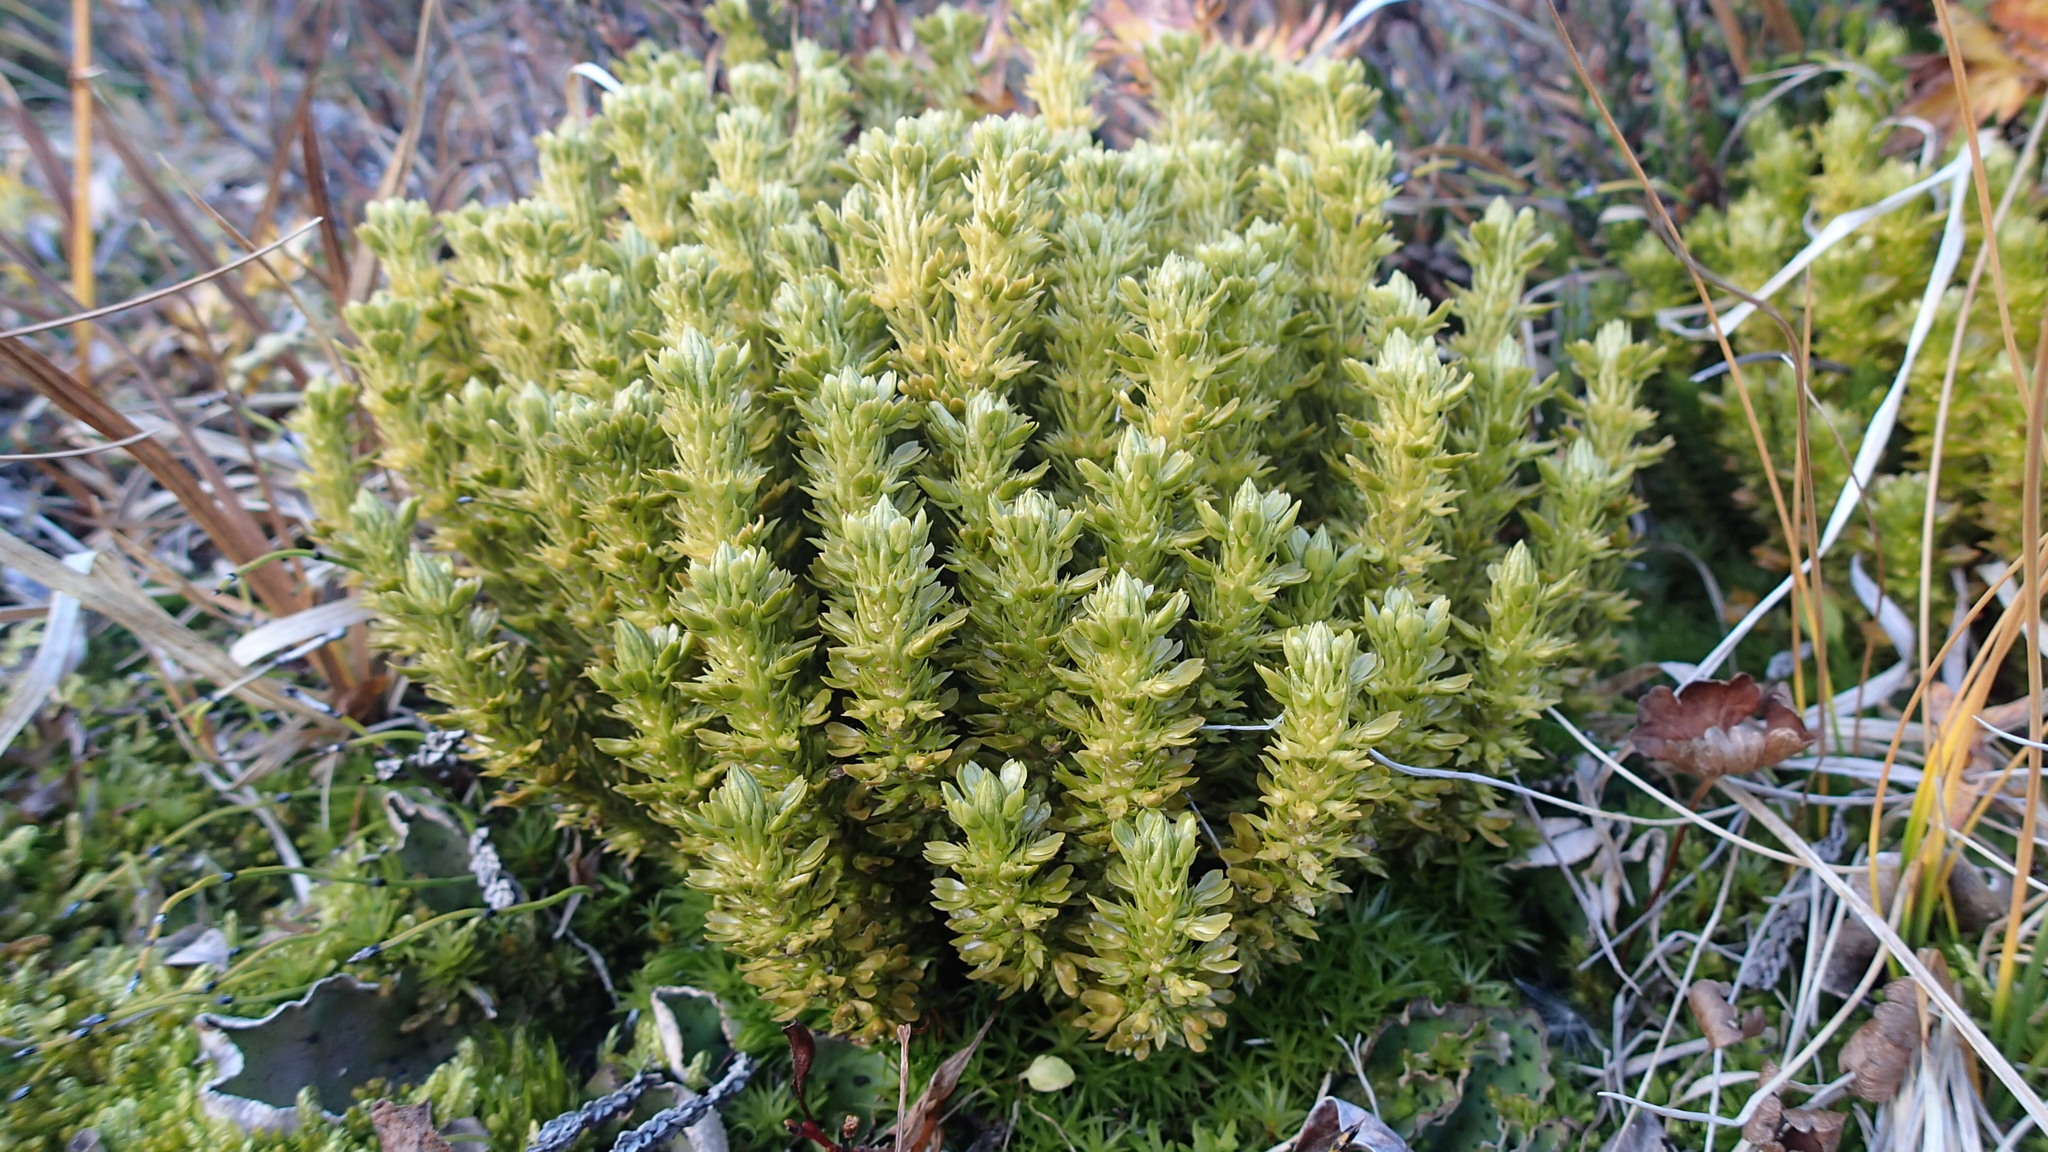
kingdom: Plantae
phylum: Tracheophyta
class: Lycopodiopsida
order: Lycopodiales
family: Lycopodiaceae
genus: Huperzia
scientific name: Huperzia continentalis
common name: Continental firmoss
